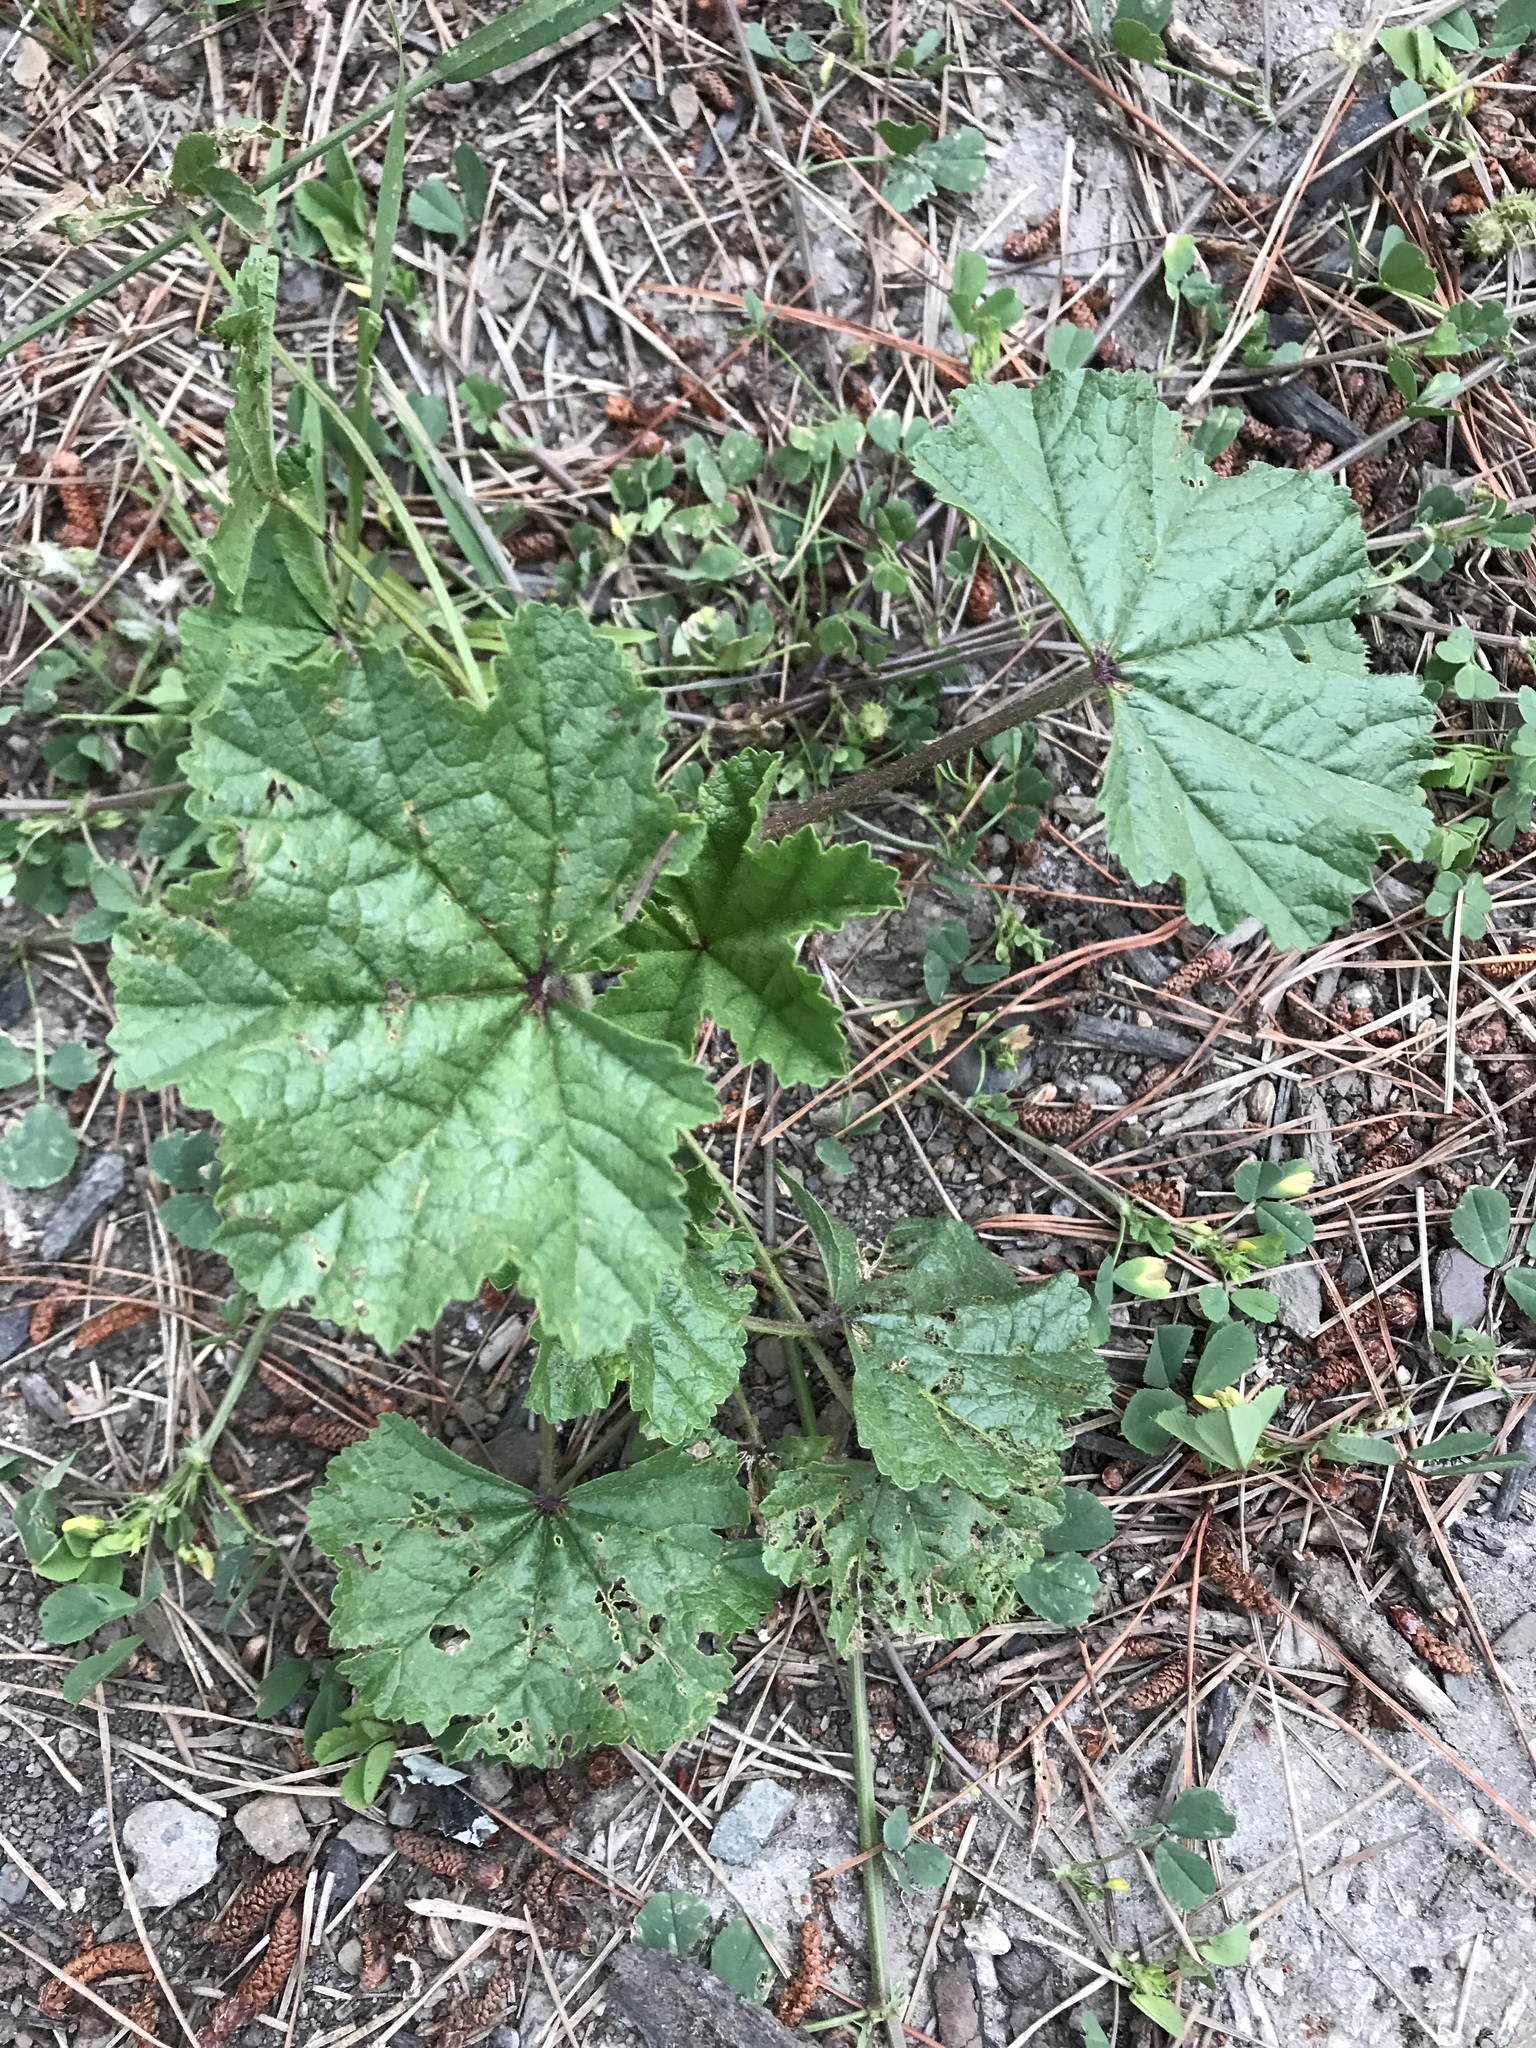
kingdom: Plantae
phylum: Tracheophyta
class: Magnoliopsida
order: Malvales
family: Malvaceae
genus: Malva
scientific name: Malva
